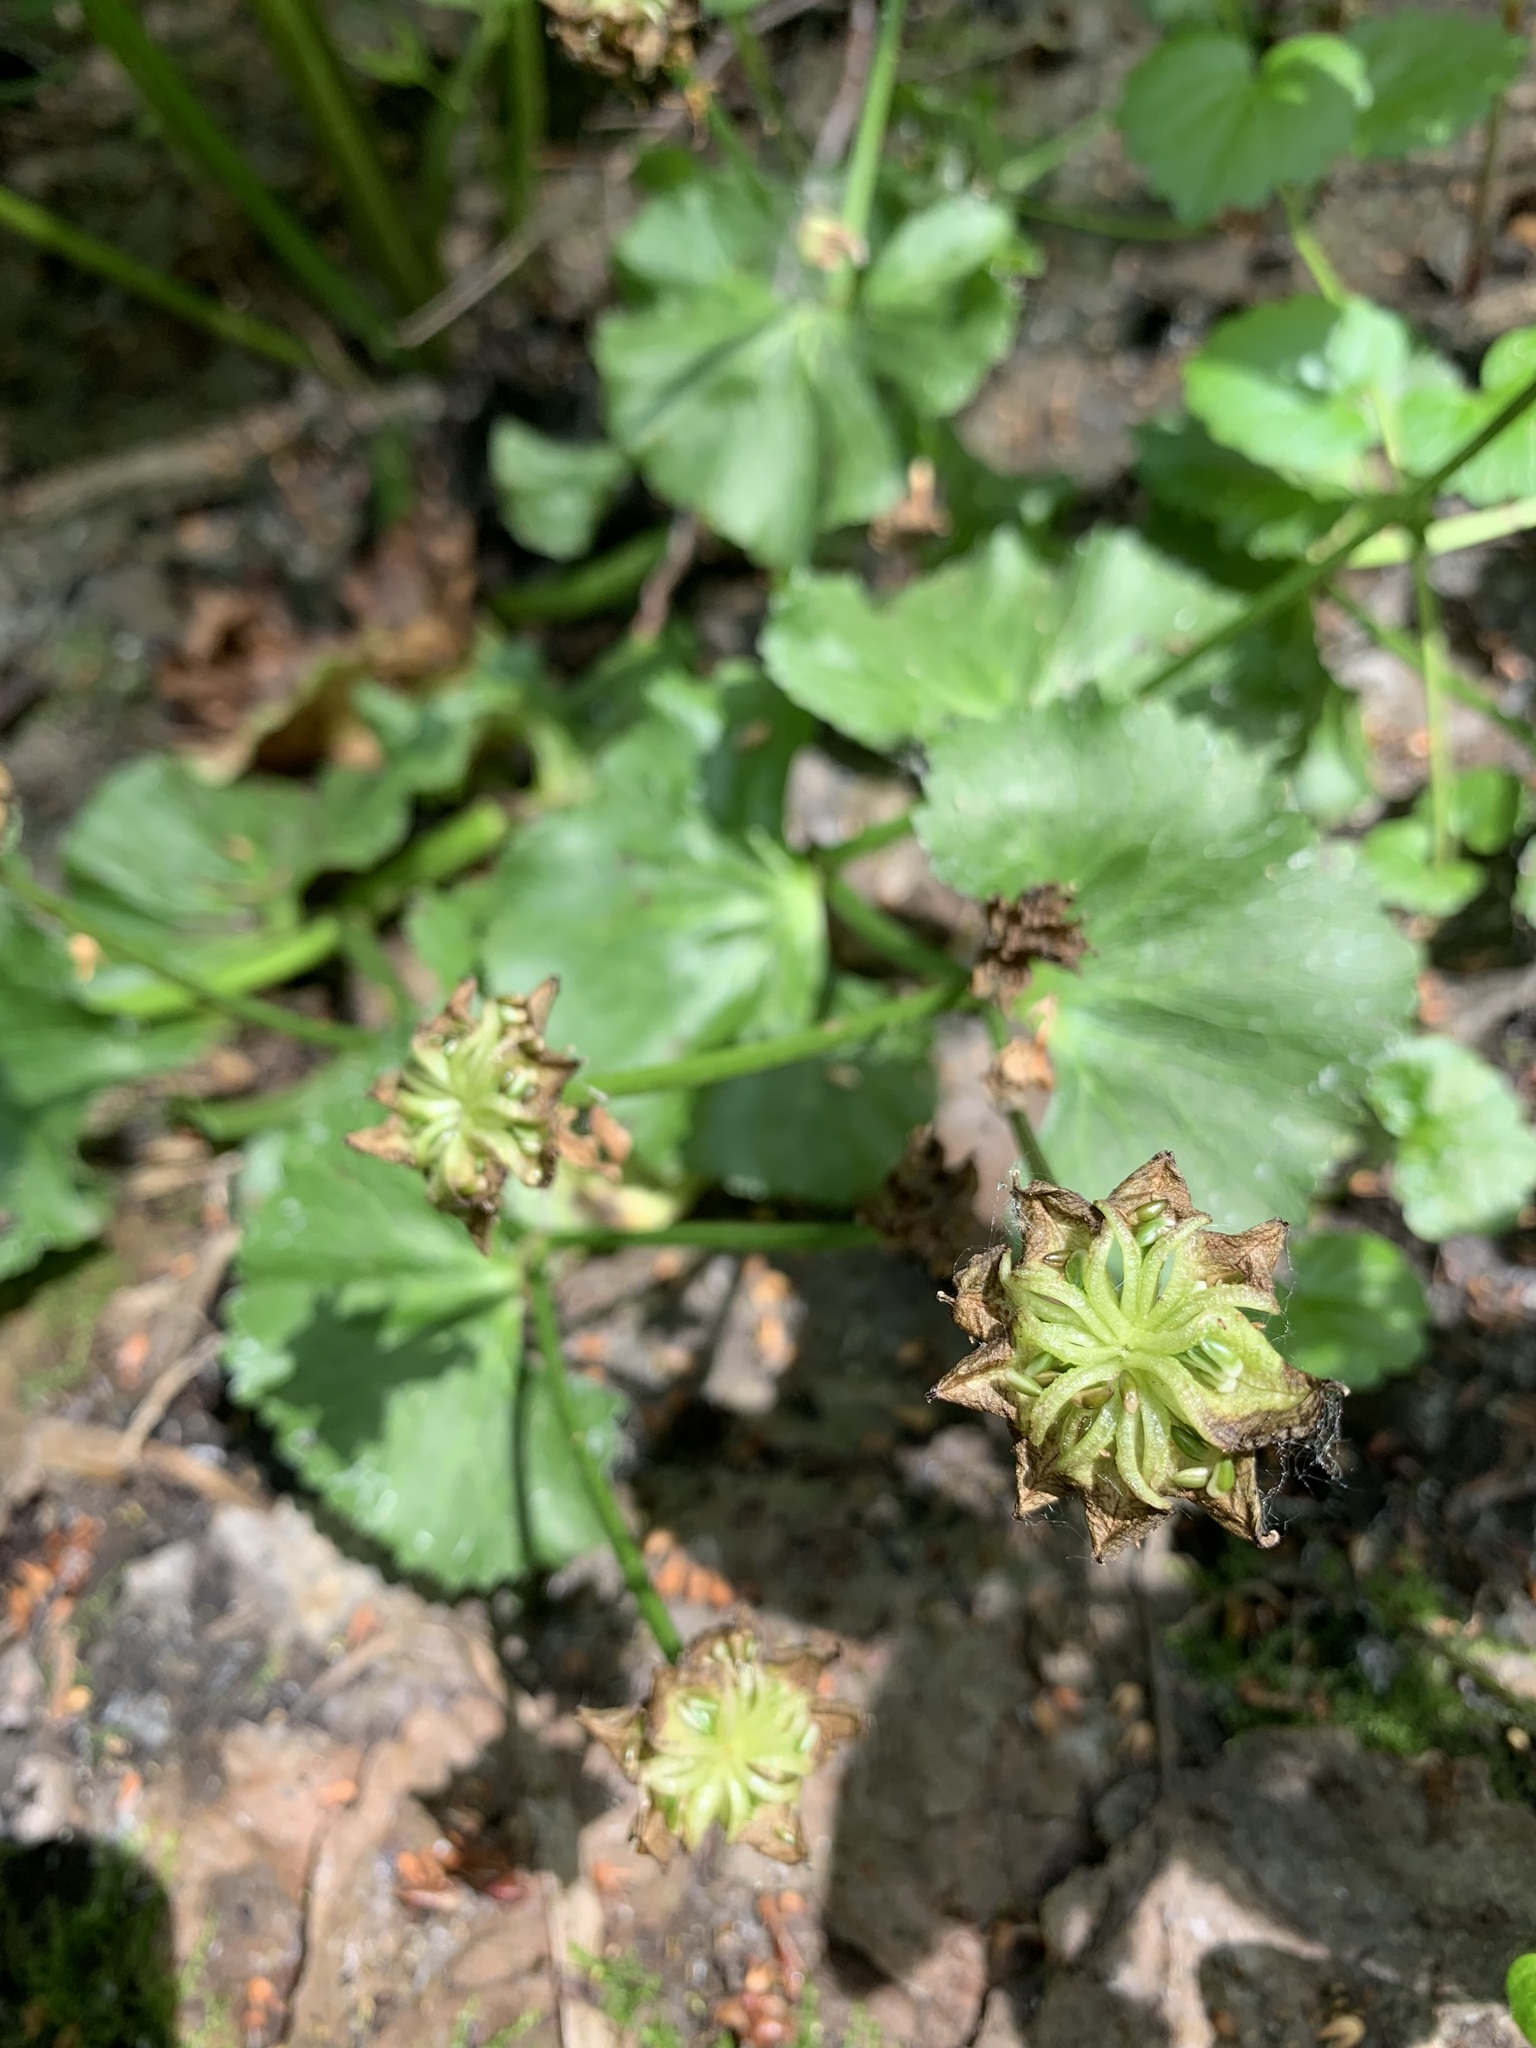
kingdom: Plantae
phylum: Tracheophyta
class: Magnoliopsida
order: Ranunculales
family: Ranunculaceae
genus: Caltha
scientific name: Caltha palustris
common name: Marsh marigold
